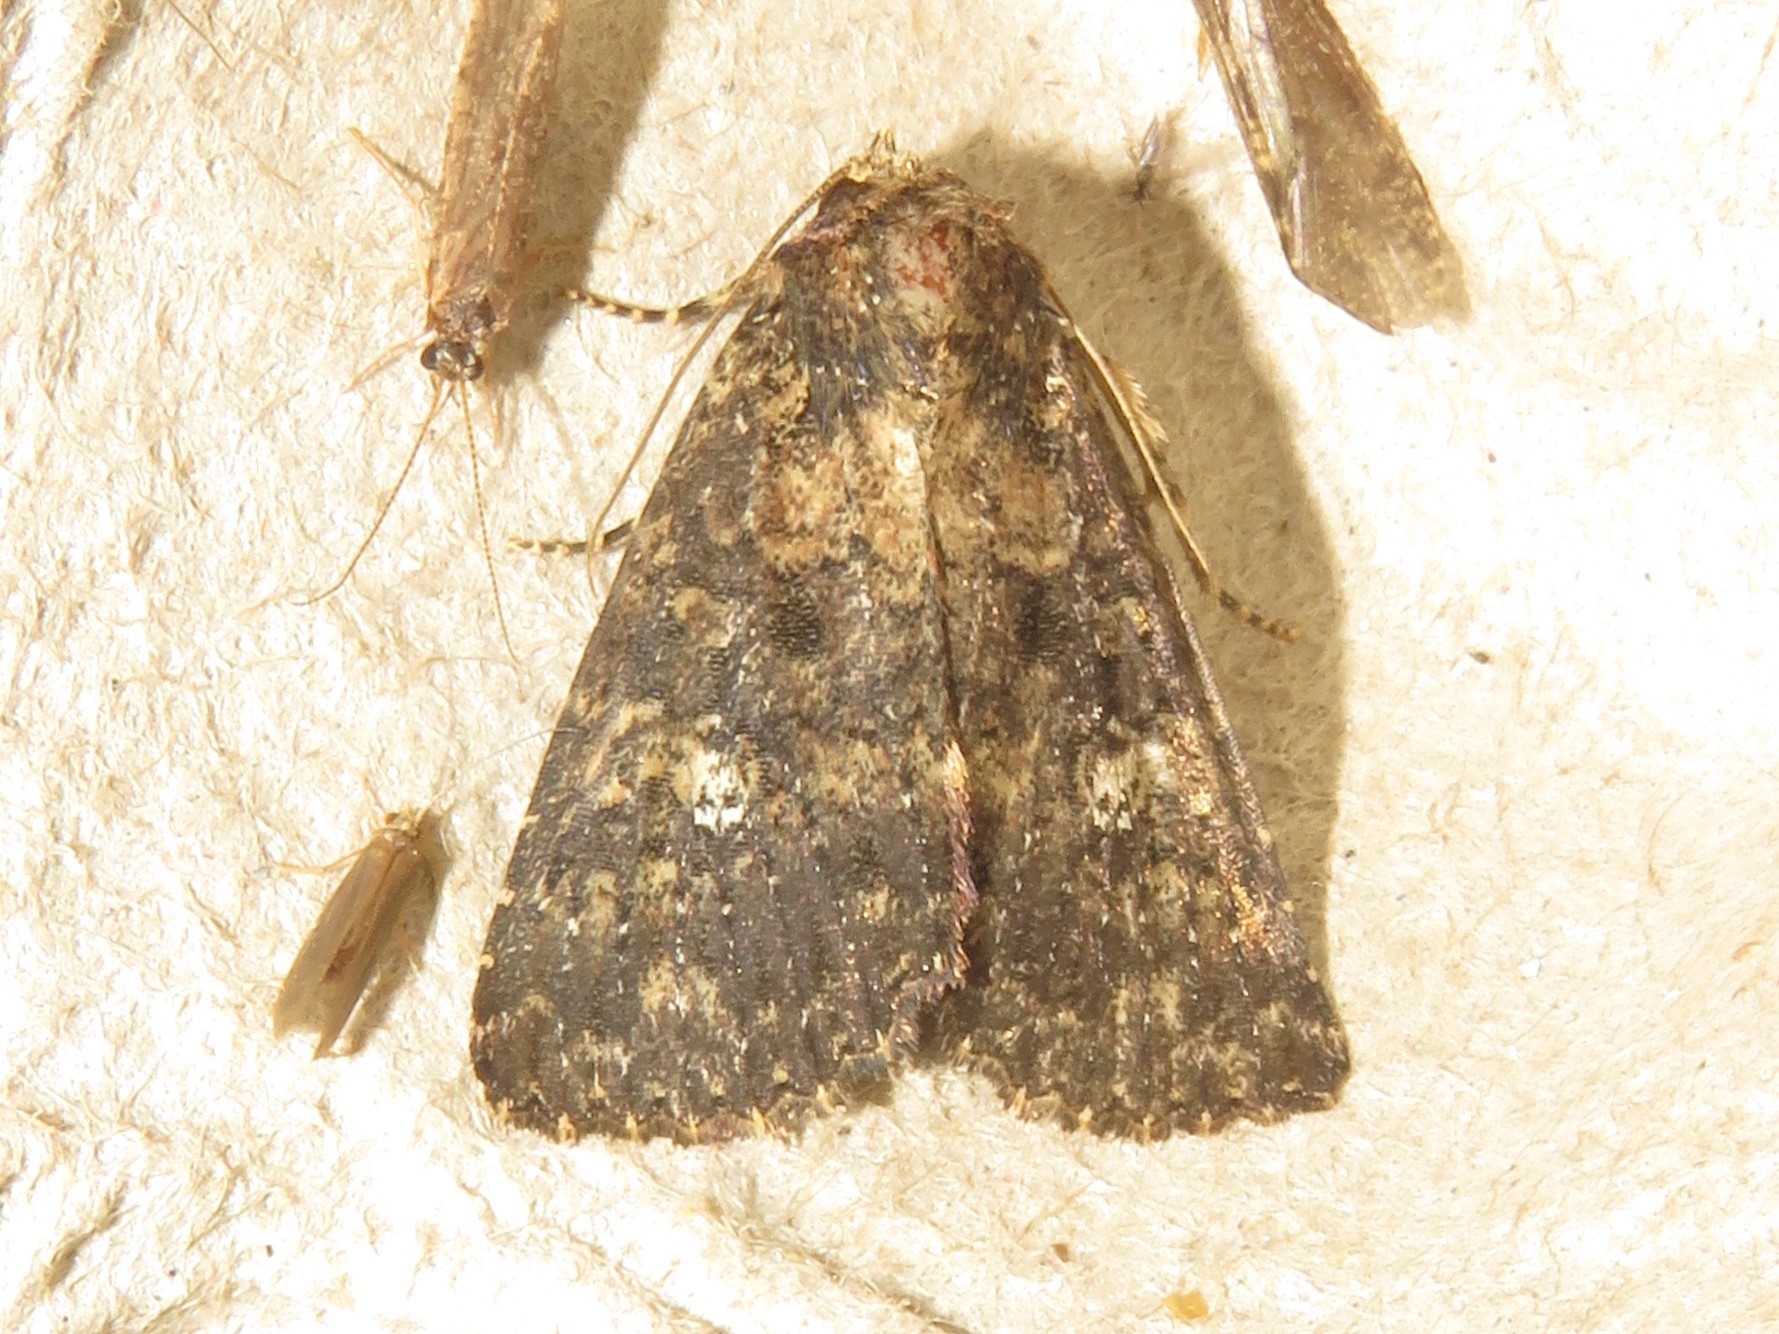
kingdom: Animalia
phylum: Arthropoda
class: Insecta
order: Lepidoptera
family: Noctuidae
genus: Condica
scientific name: Condica vecors
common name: Dusky groundling
